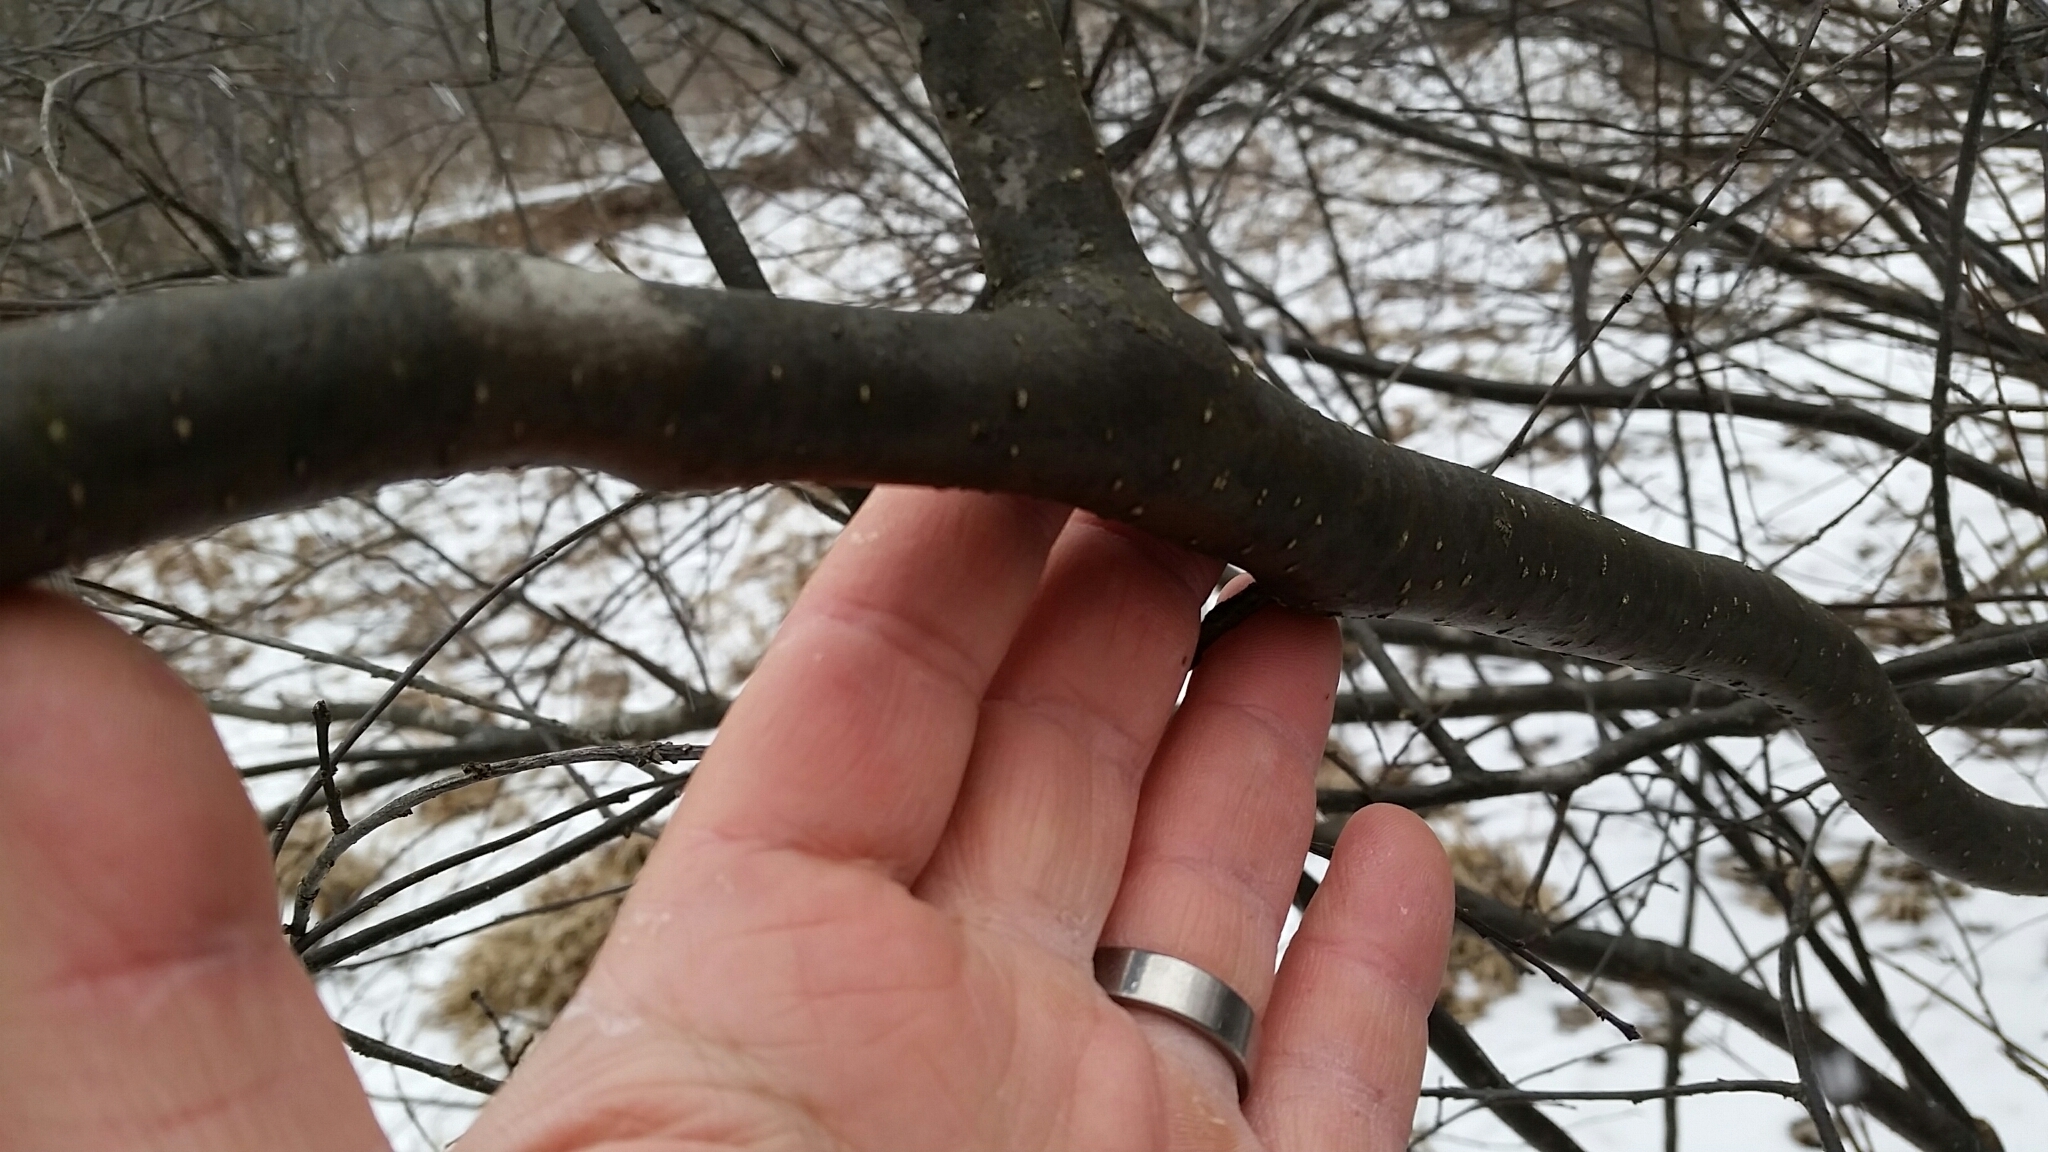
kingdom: Plantae
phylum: Tracheophyta
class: Magnoliopsida
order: Aquifoliales
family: Aquifoliaceae
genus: Ilex
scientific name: Ilex verticillata
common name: Virginia winterberry
